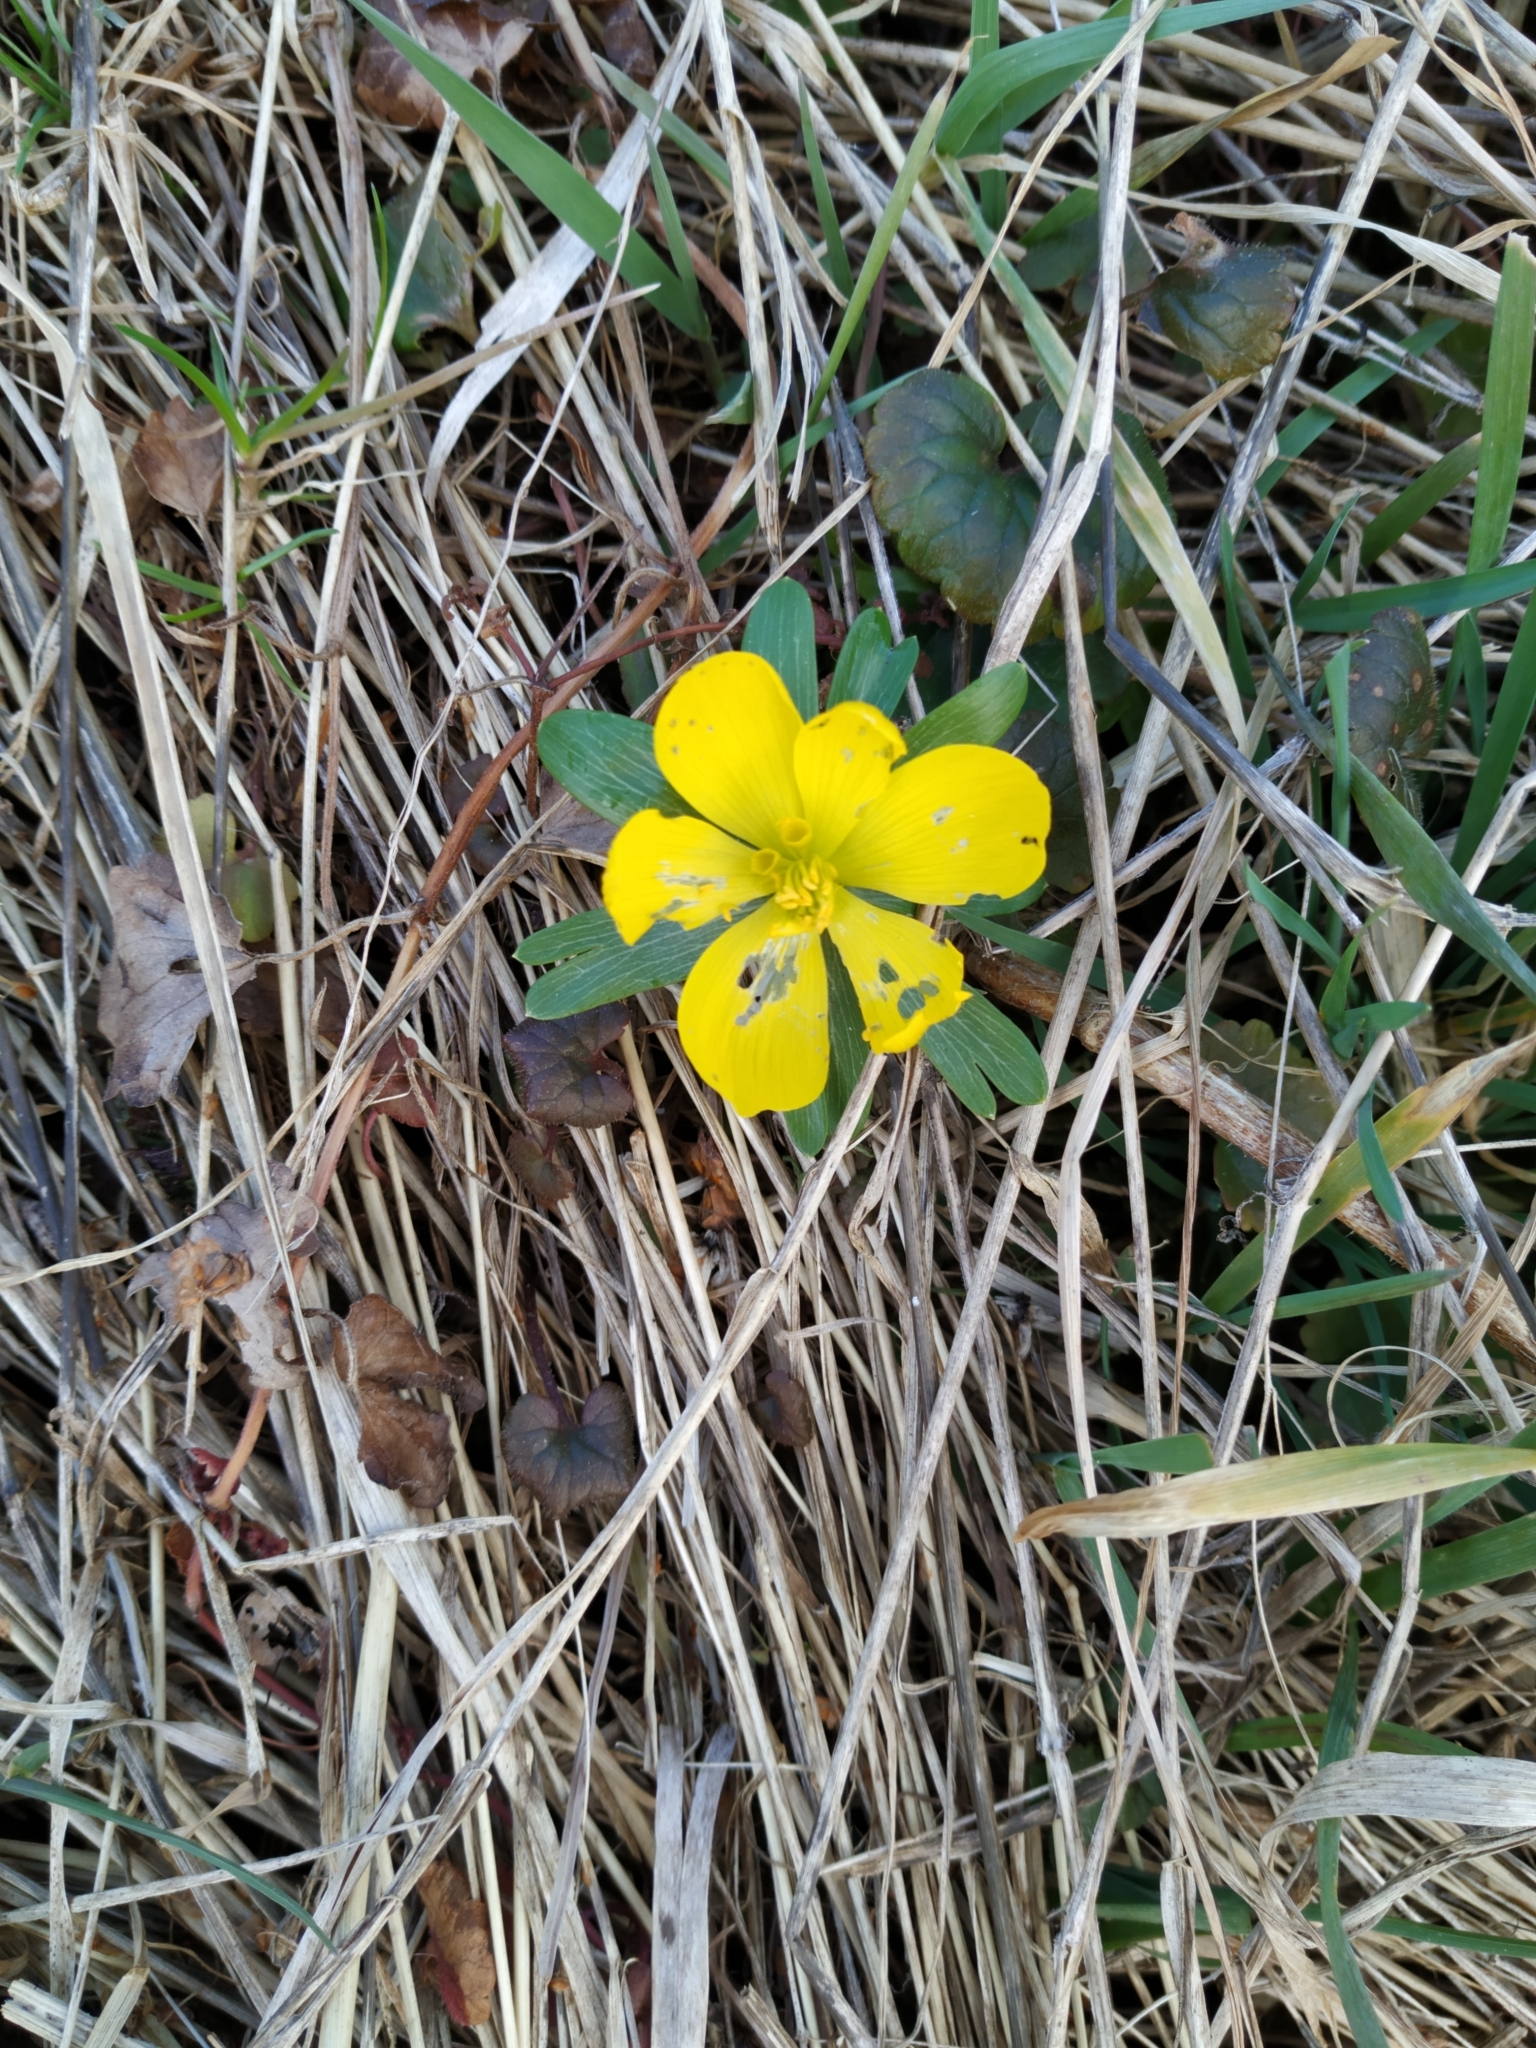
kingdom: Plantae
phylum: Tracheophyta
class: Magnoliopsida
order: Ranunculales
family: Ranunculaceae
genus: Eranthis
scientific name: Eranthis hyemalis
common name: Winter aconite
